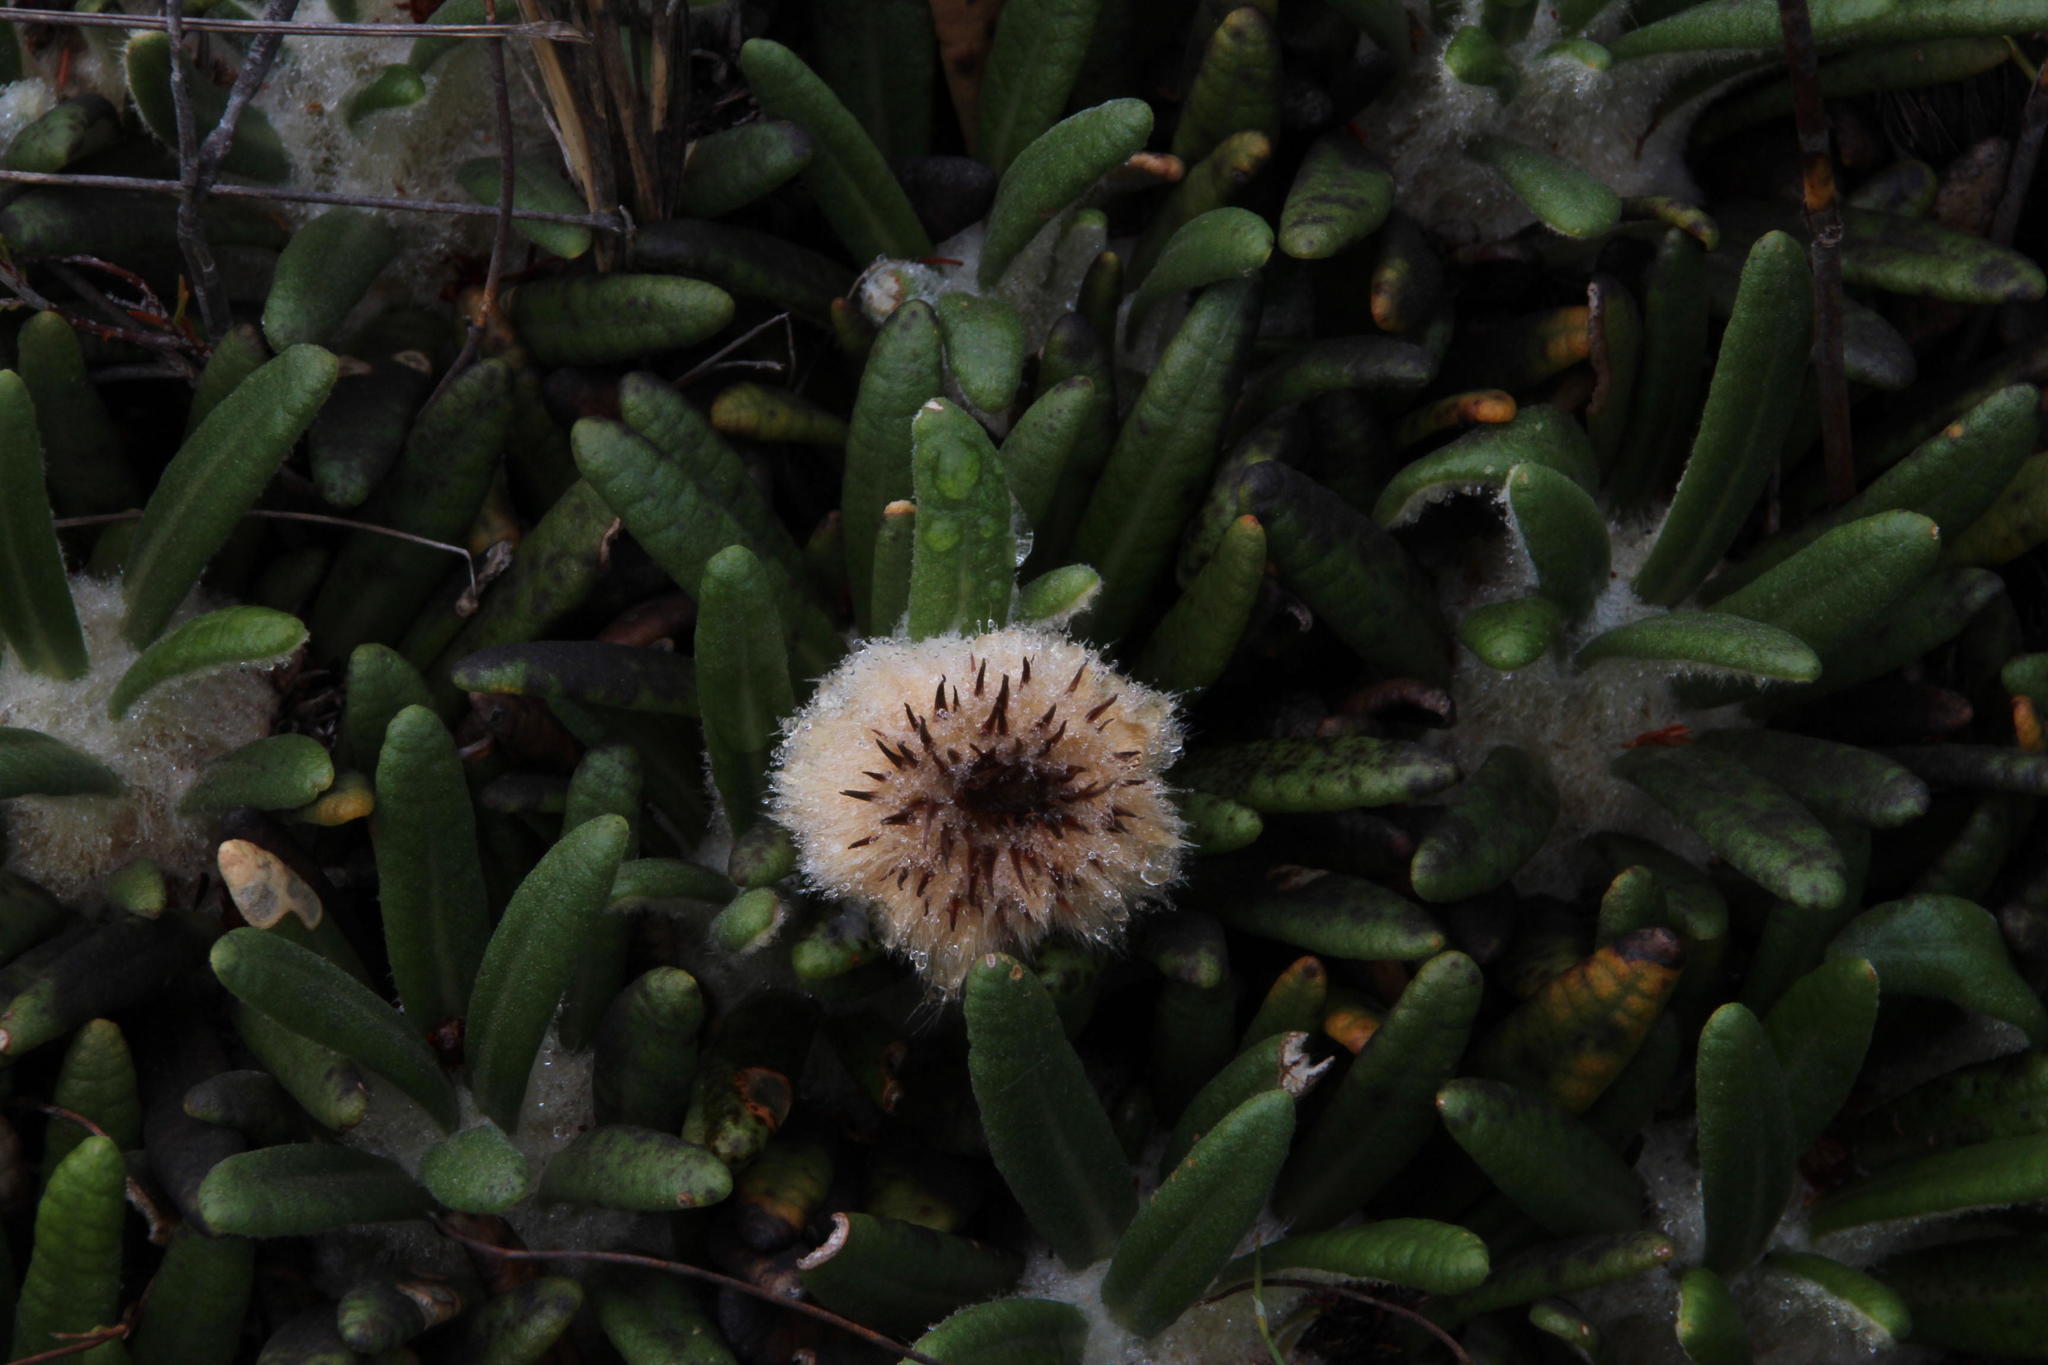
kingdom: Plantae
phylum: Tracheophyta
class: Magnoliopsida
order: Asterales
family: Asteraceae
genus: Oldenburgia
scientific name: Oldenburgia paradoxa
